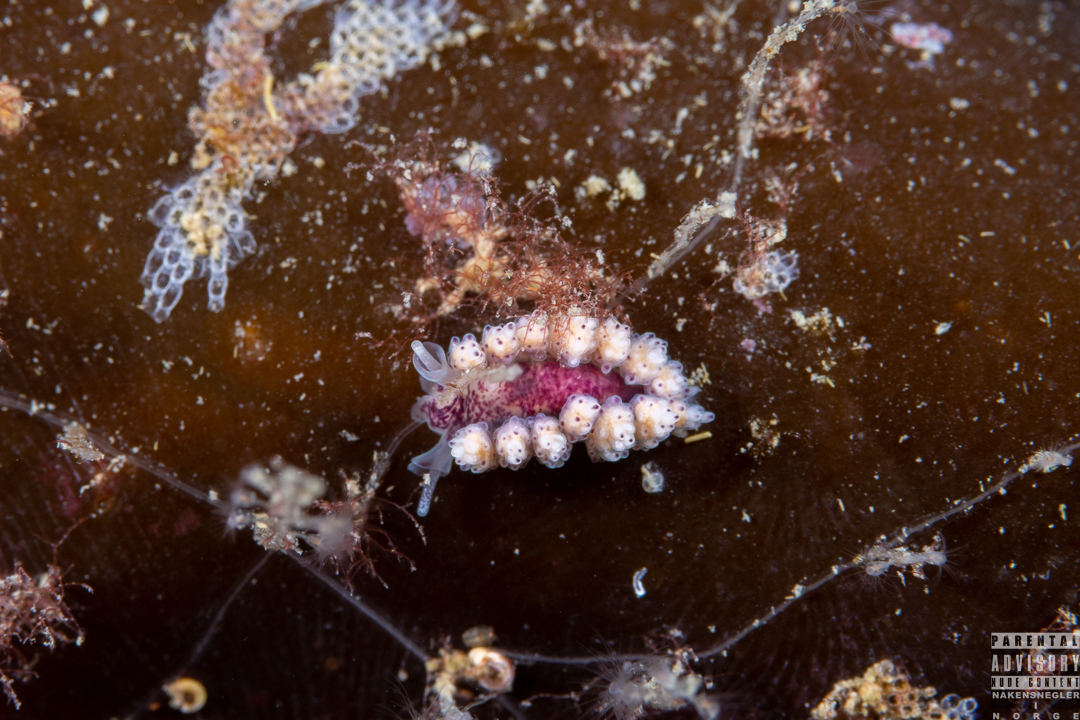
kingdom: Animalia
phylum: Mollusca
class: Gastropoda
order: Nudibranchia
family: Dotidae
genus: Doto
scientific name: Doto coronata
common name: Coronate doto
